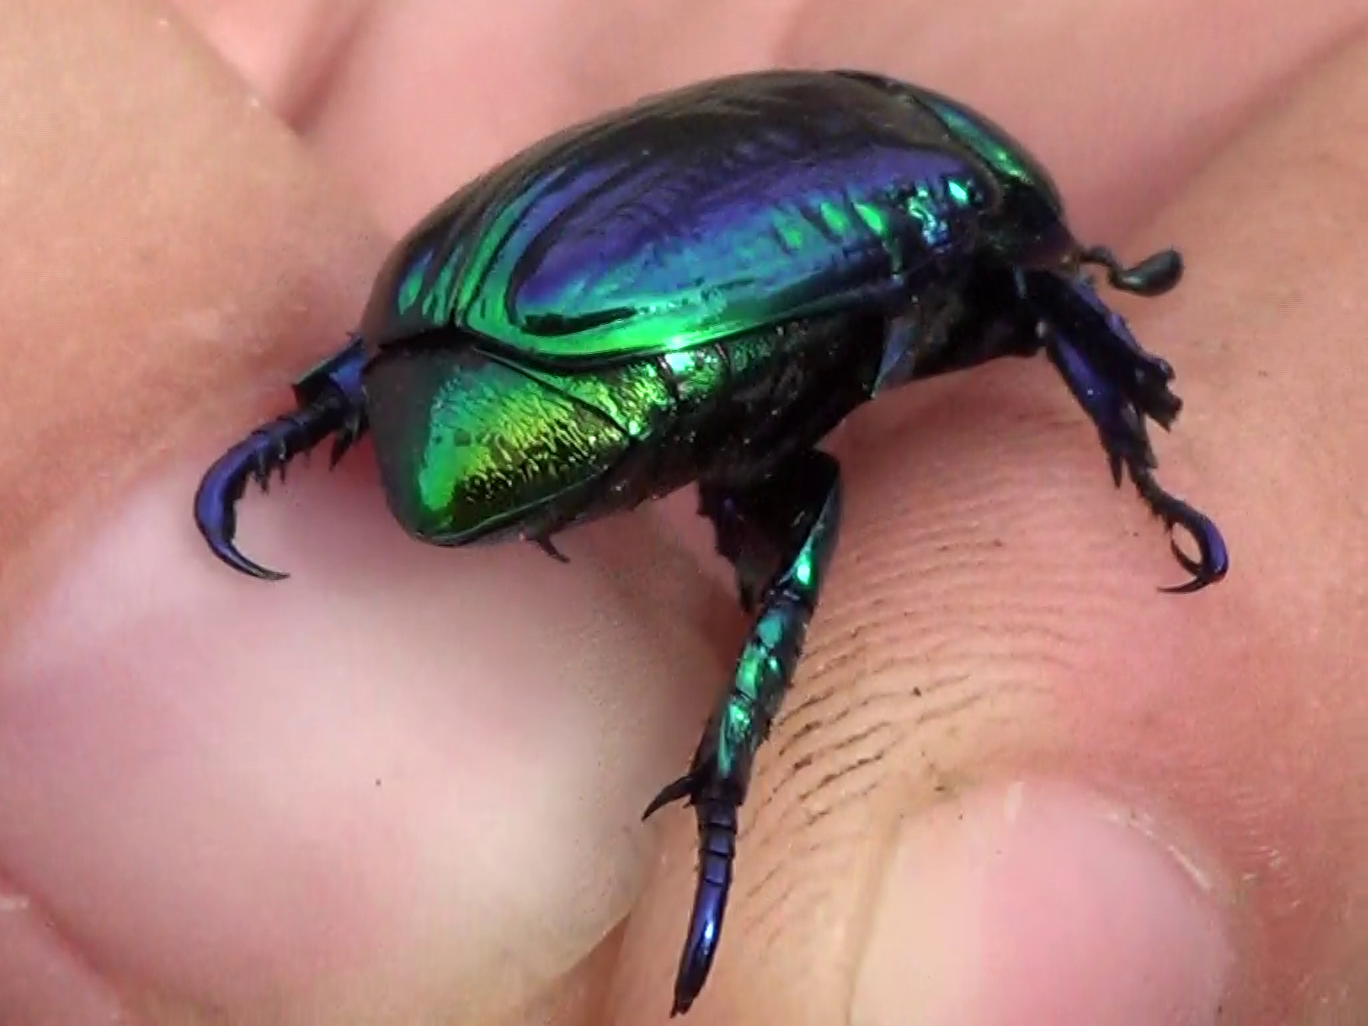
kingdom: Animalia
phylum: Arthropoda
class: Insecta
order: Coleoptera
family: Scarabaeidae
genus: Pelidnota
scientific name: Pelidnota sumptuosa
